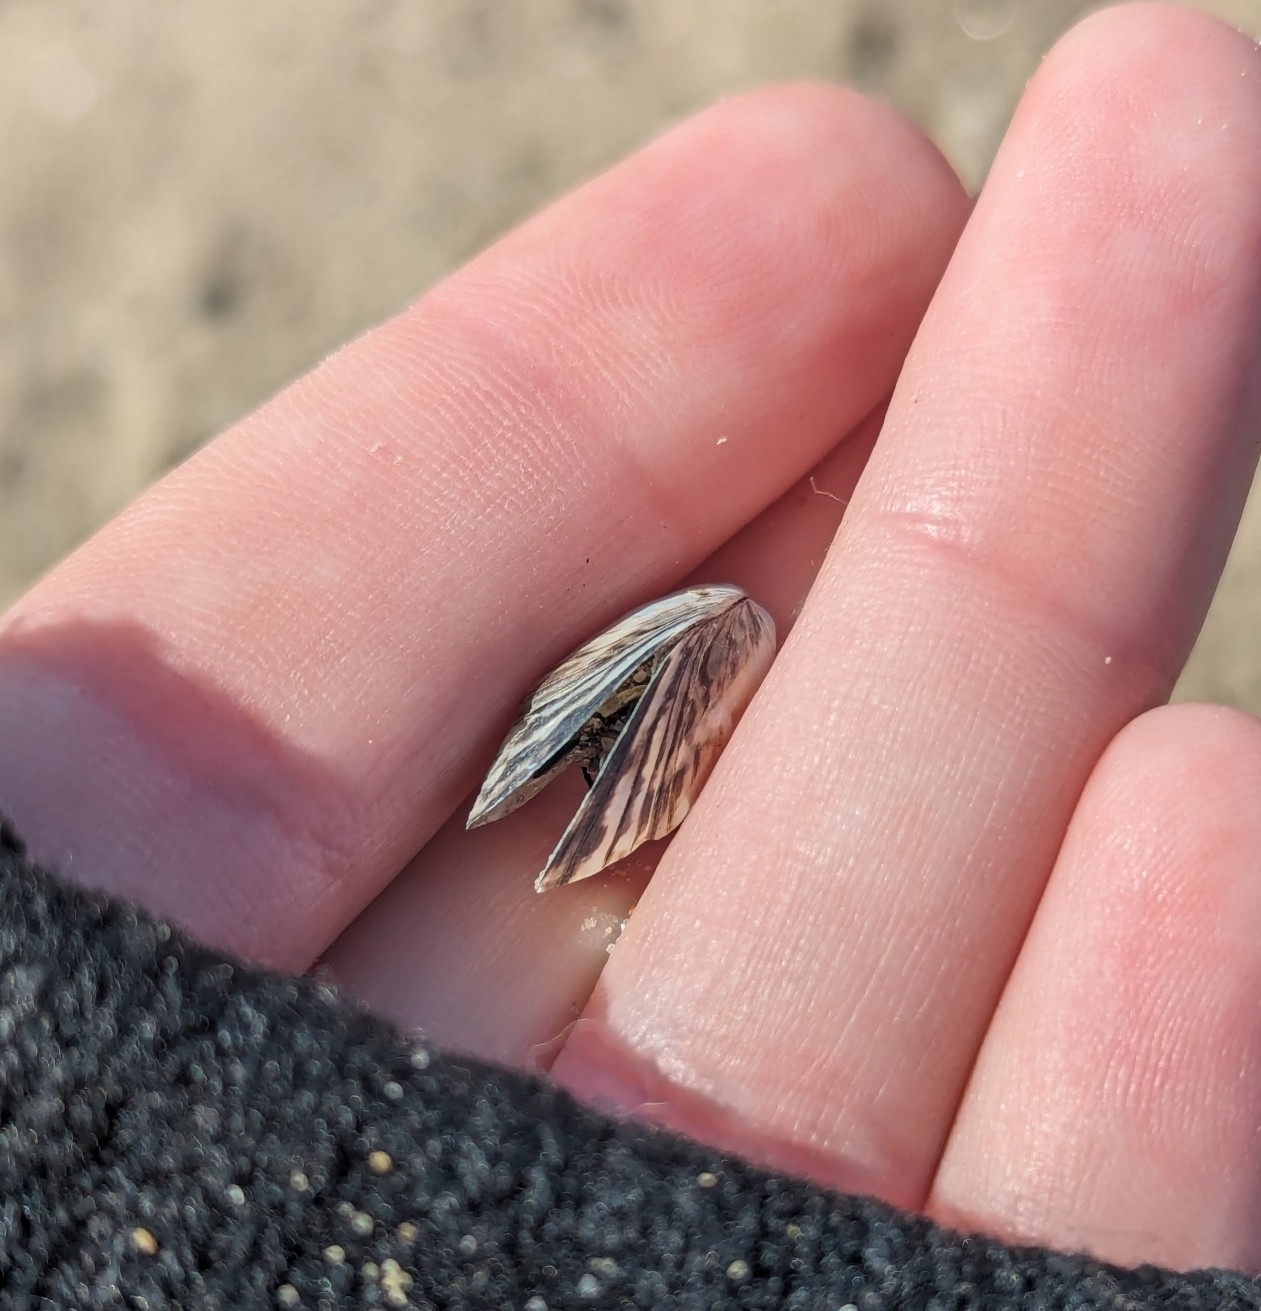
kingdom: Animalia
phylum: Mollusca
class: Bivalvia
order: Myida
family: Dreissenidae
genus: Dreissena
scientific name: Dreissena bugensis
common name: Quagga mussel
